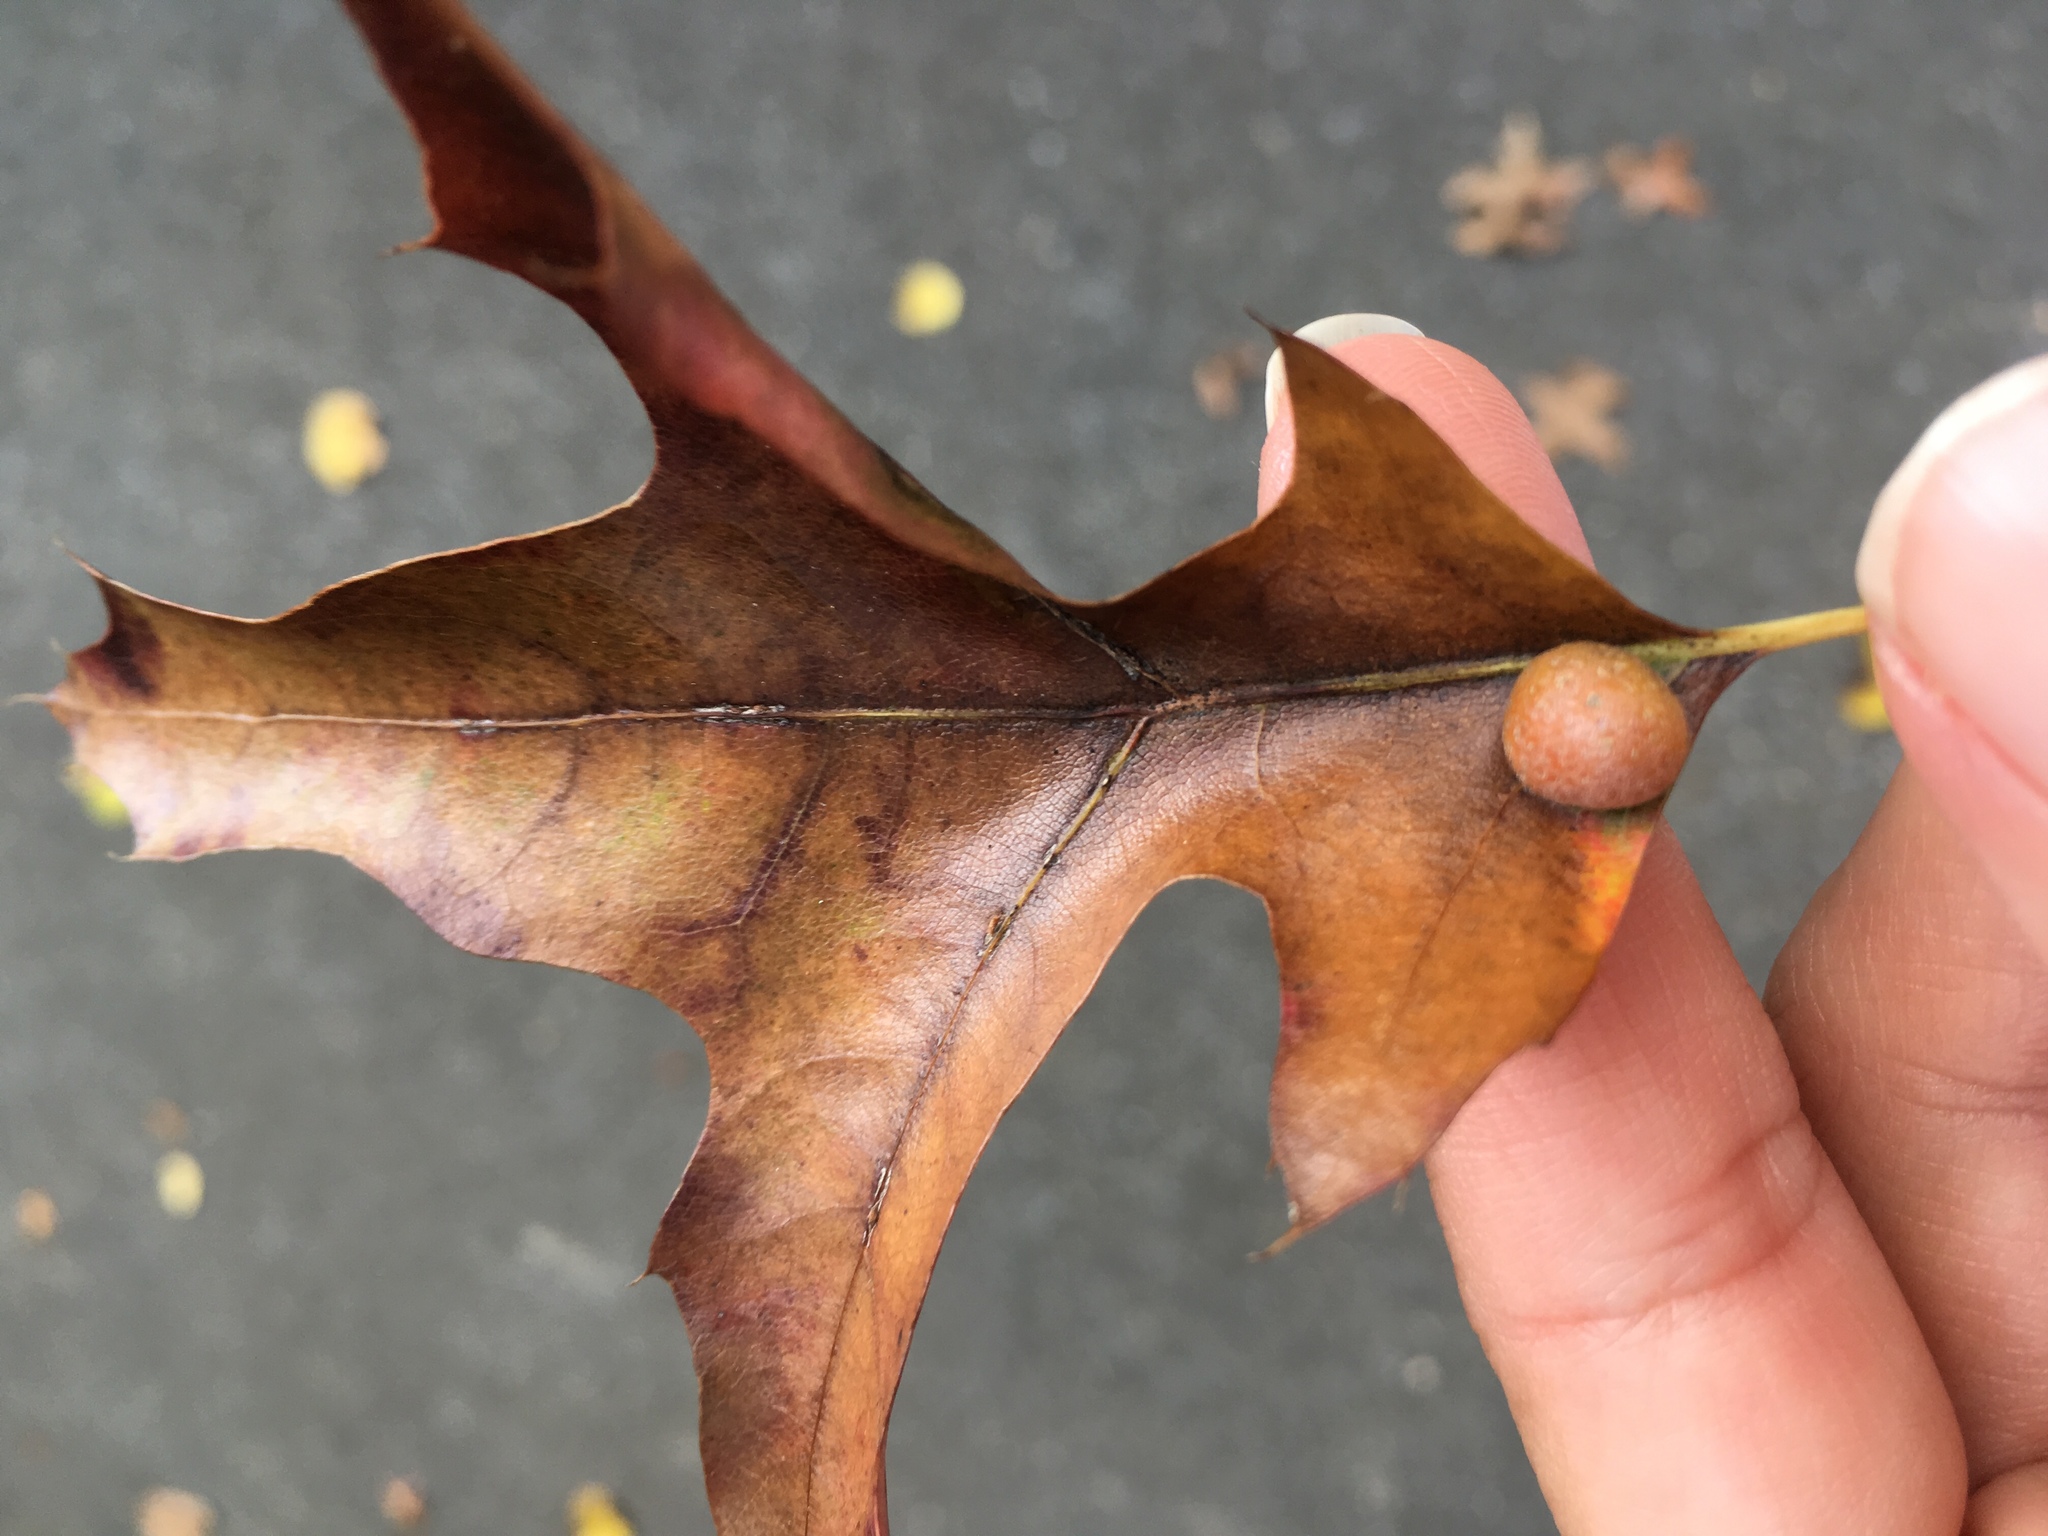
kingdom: Animalia
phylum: Arthropoda
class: Insecta
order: Diptera
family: Cecidomyiidae
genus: Polystepha
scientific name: Polystepha pilulae
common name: Oak leaf gall midge
